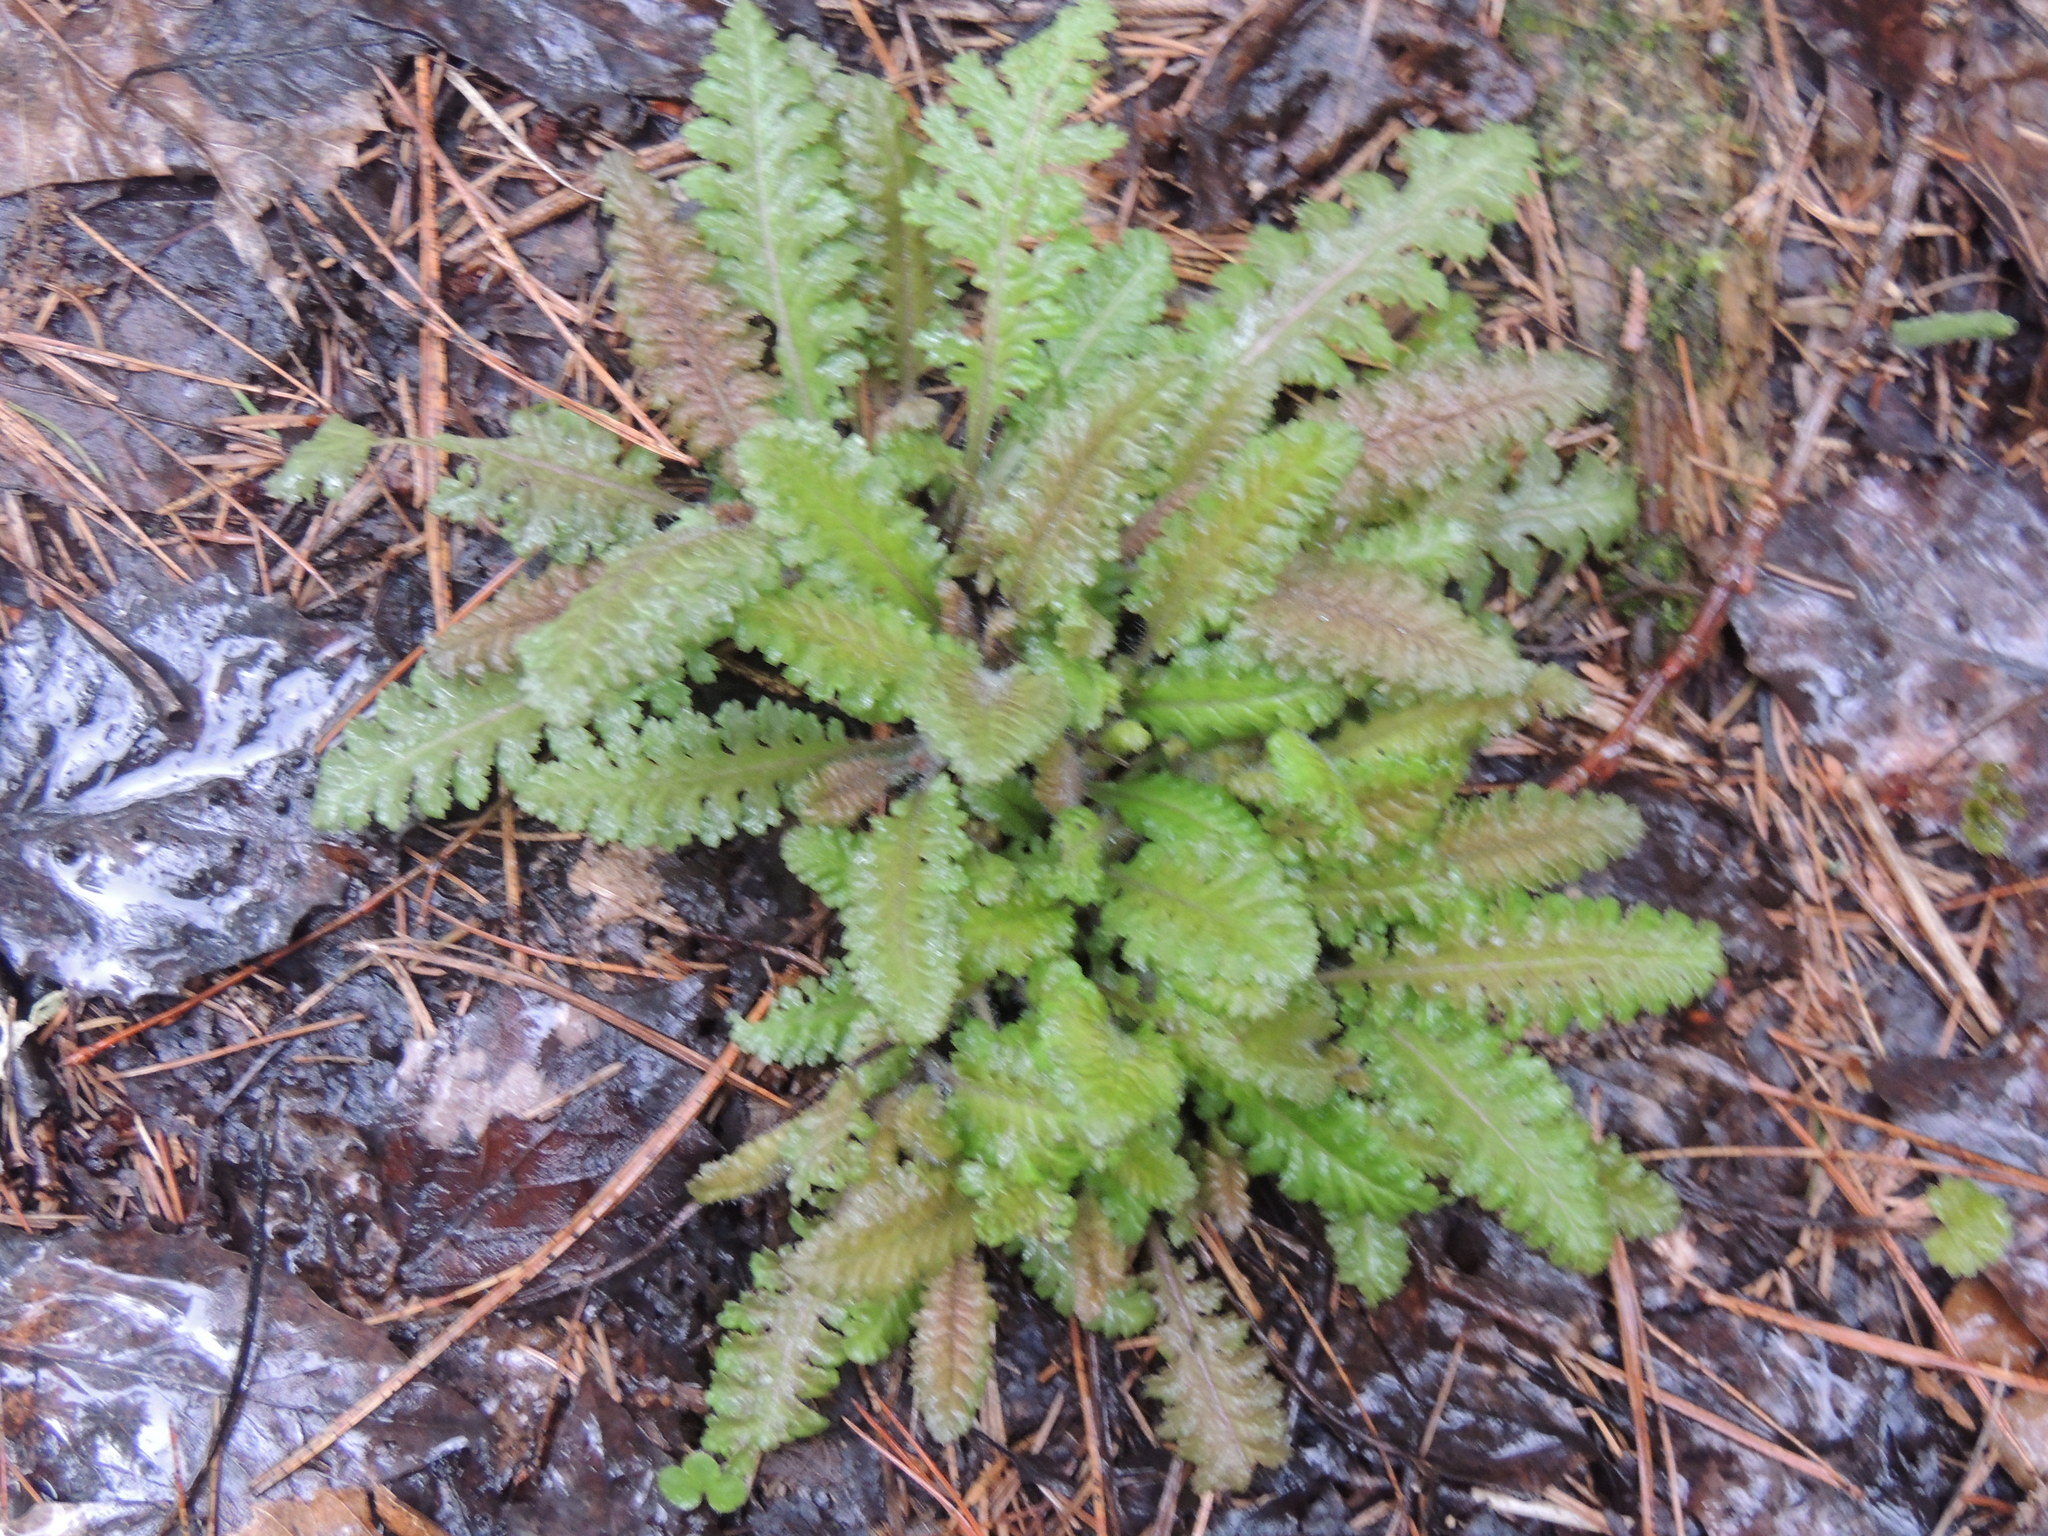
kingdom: Plantae
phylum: Tracheophyta
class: Magnoliopsida
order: Lamiales
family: Orobanchaceae
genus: Pedicularis
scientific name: Pedicularis canadensis
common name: Early lousewort
